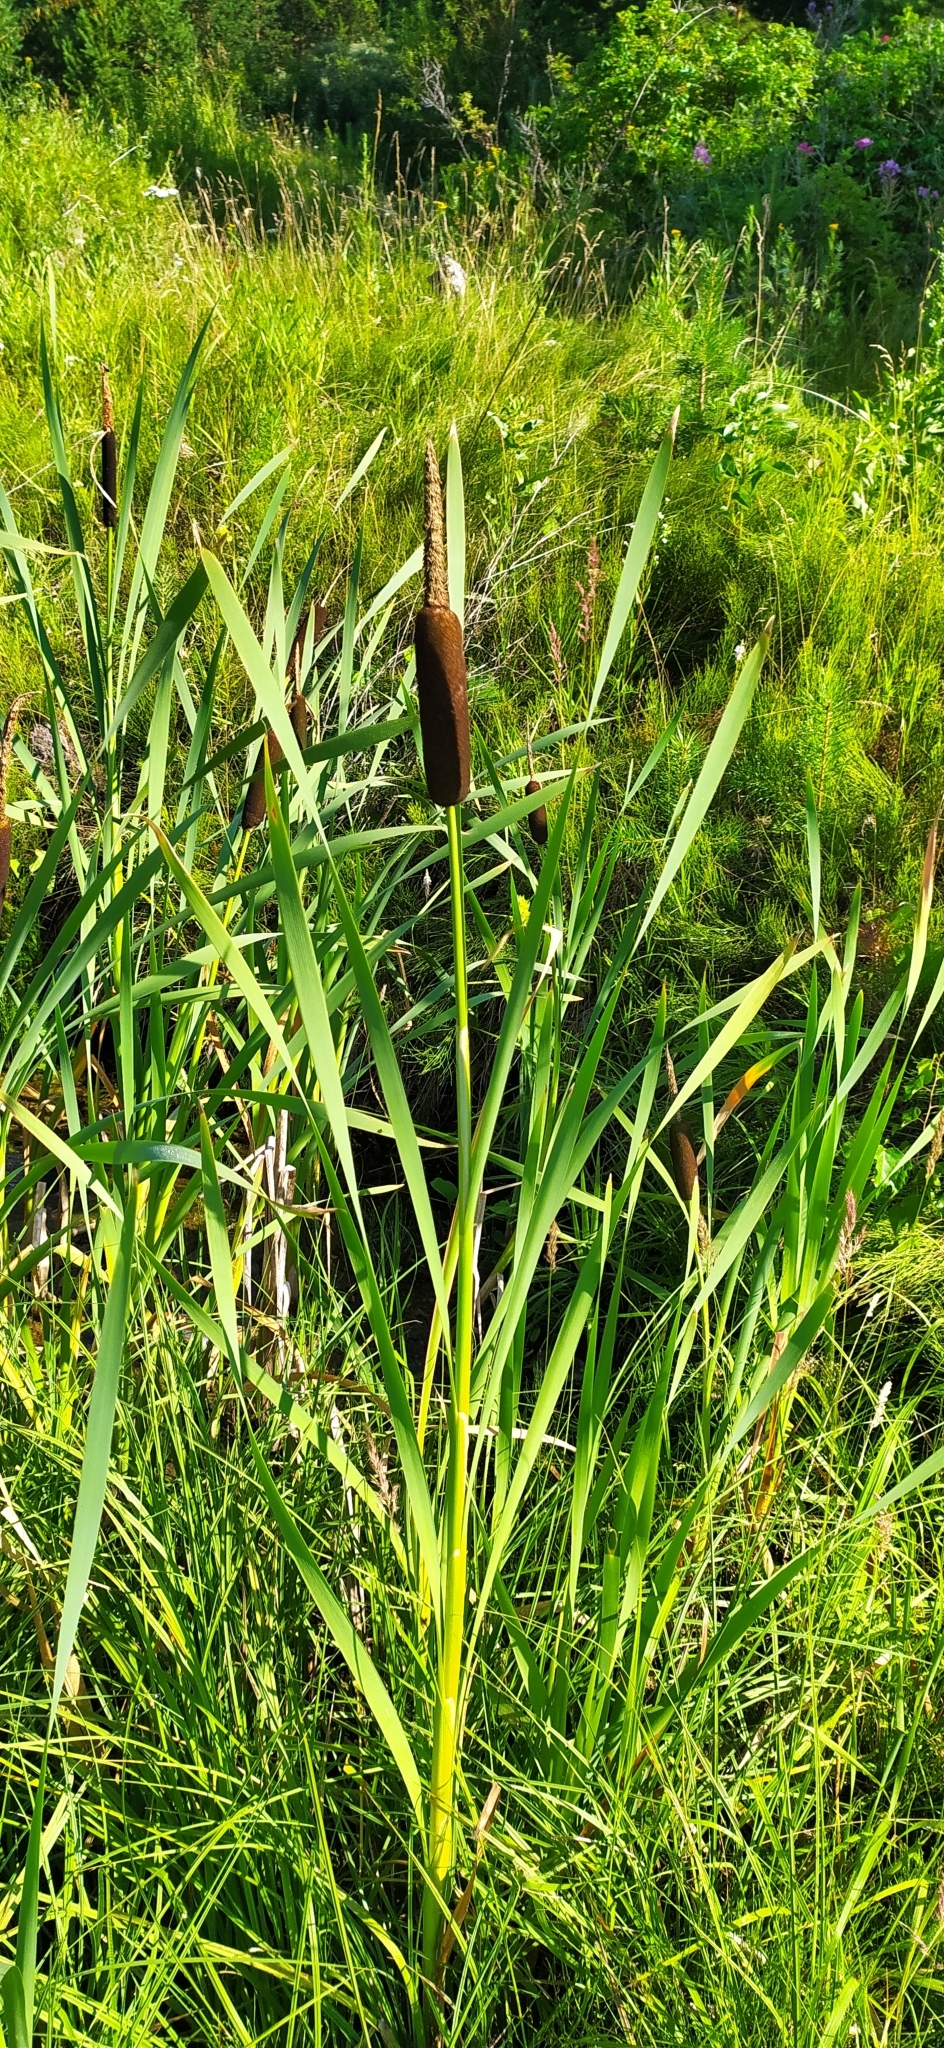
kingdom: Plantae
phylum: Tracheophyta
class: Liliopsida
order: Poales
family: Typhaceae
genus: Typha
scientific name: Typha latifolia
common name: Broadleaf cattail
